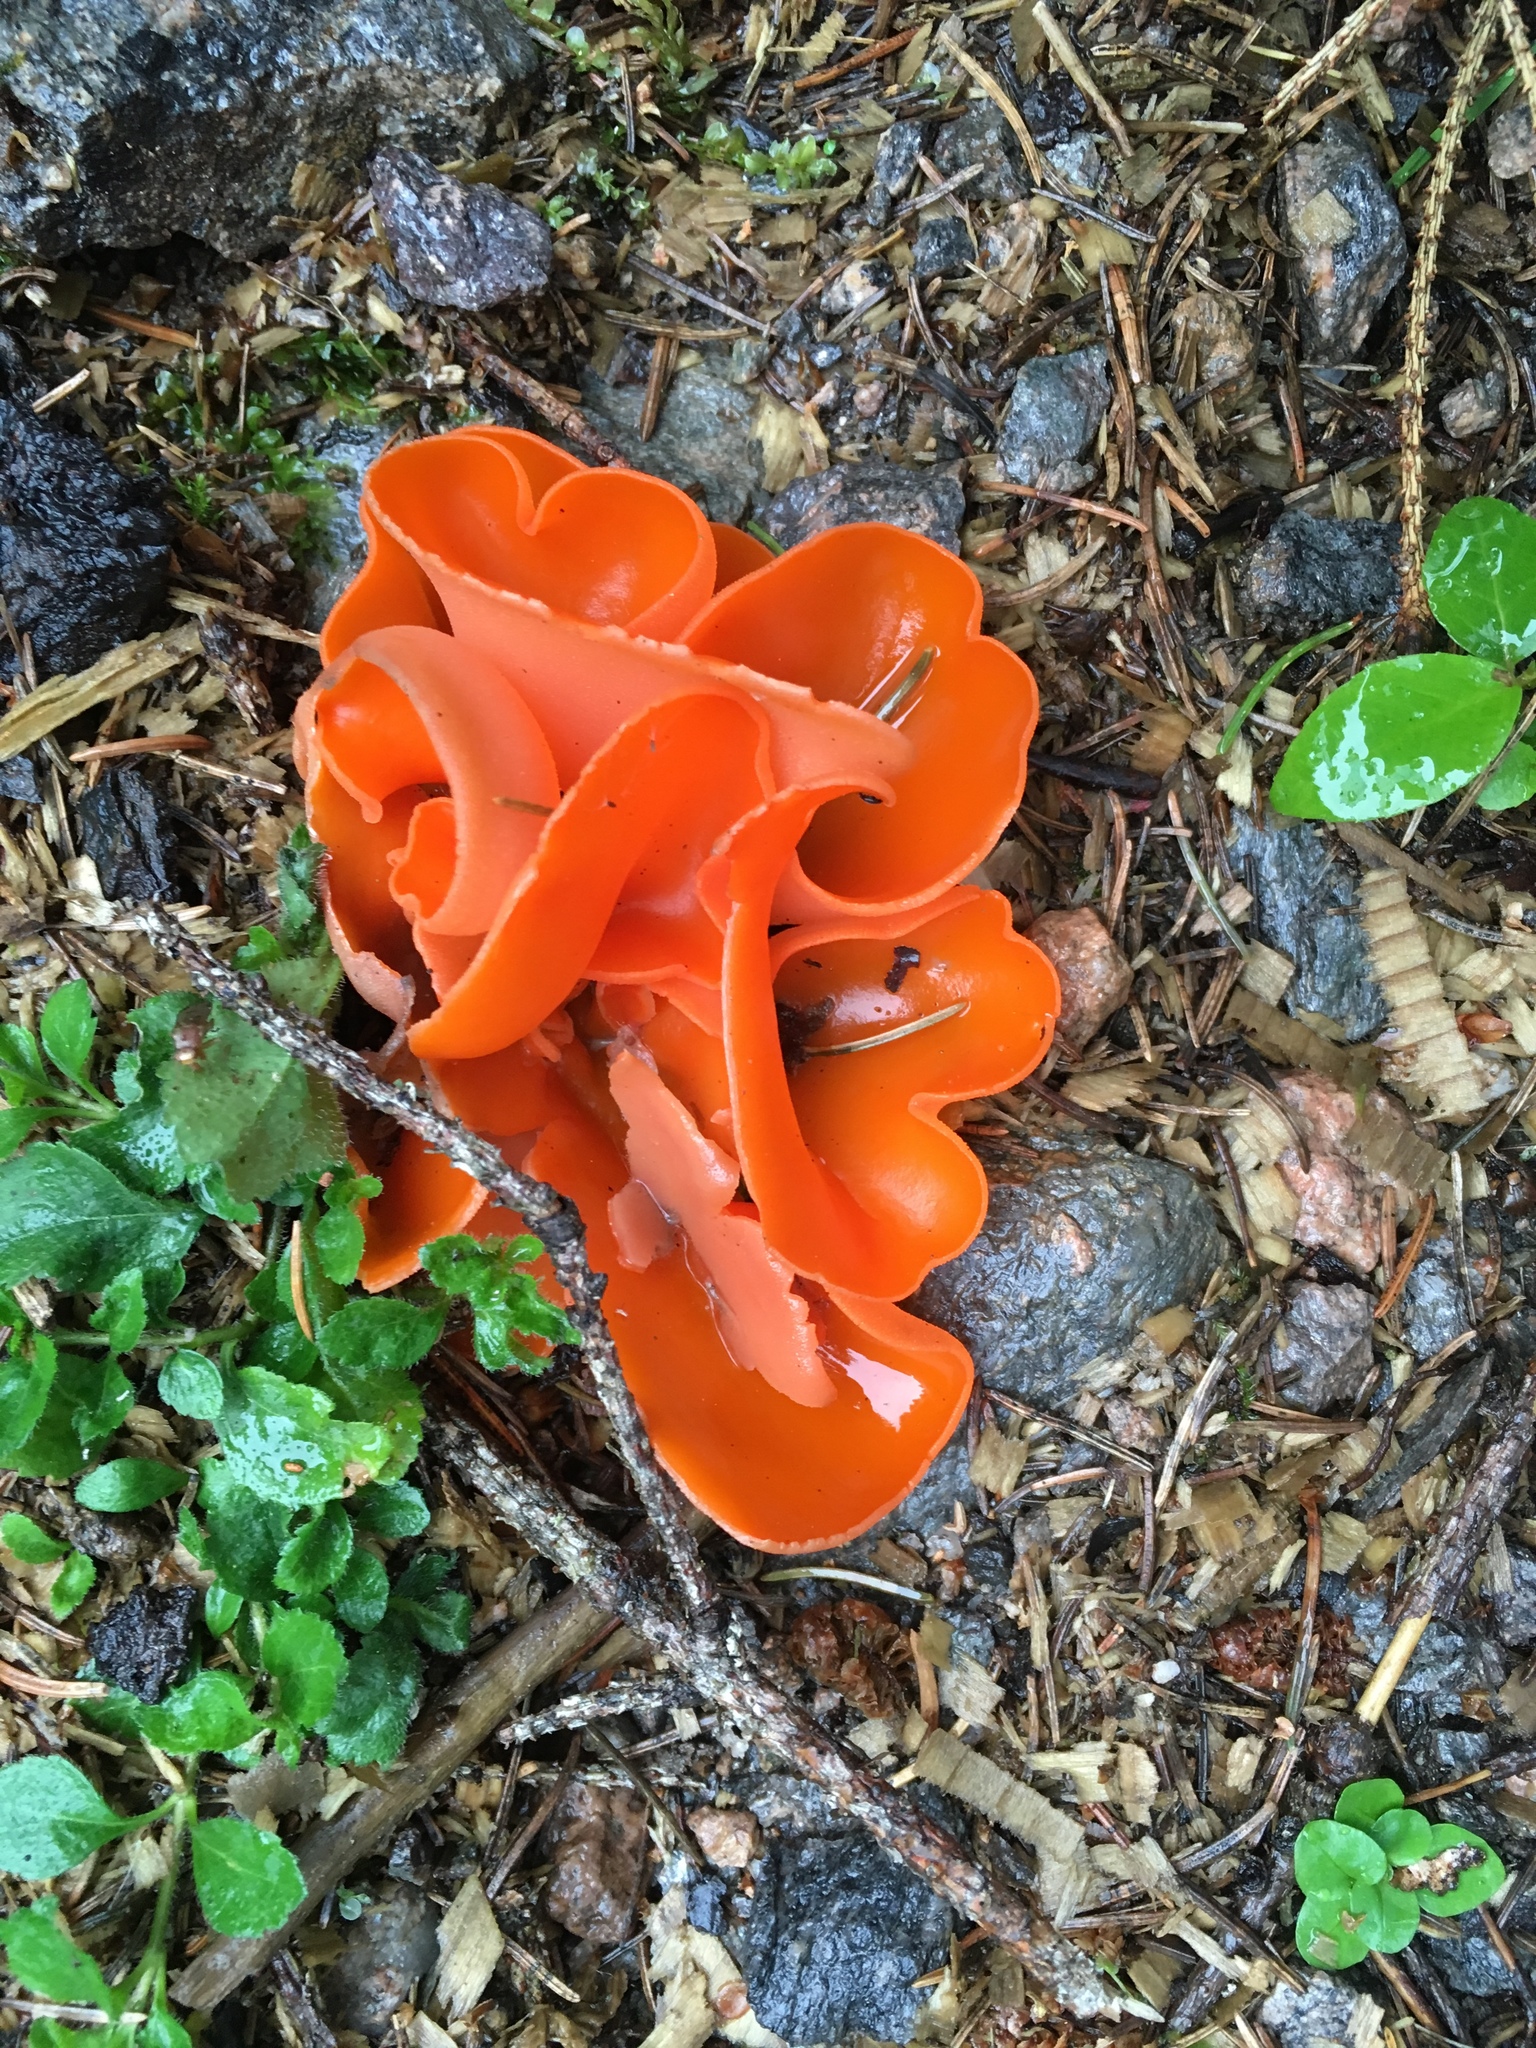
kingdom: Fungi
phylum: Ascomycota
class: Pezizomycetes
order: Pezizales
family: Pyronemataceae
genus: Aleuria
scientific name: Aleuria aurantia
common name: Orange peel fungus
